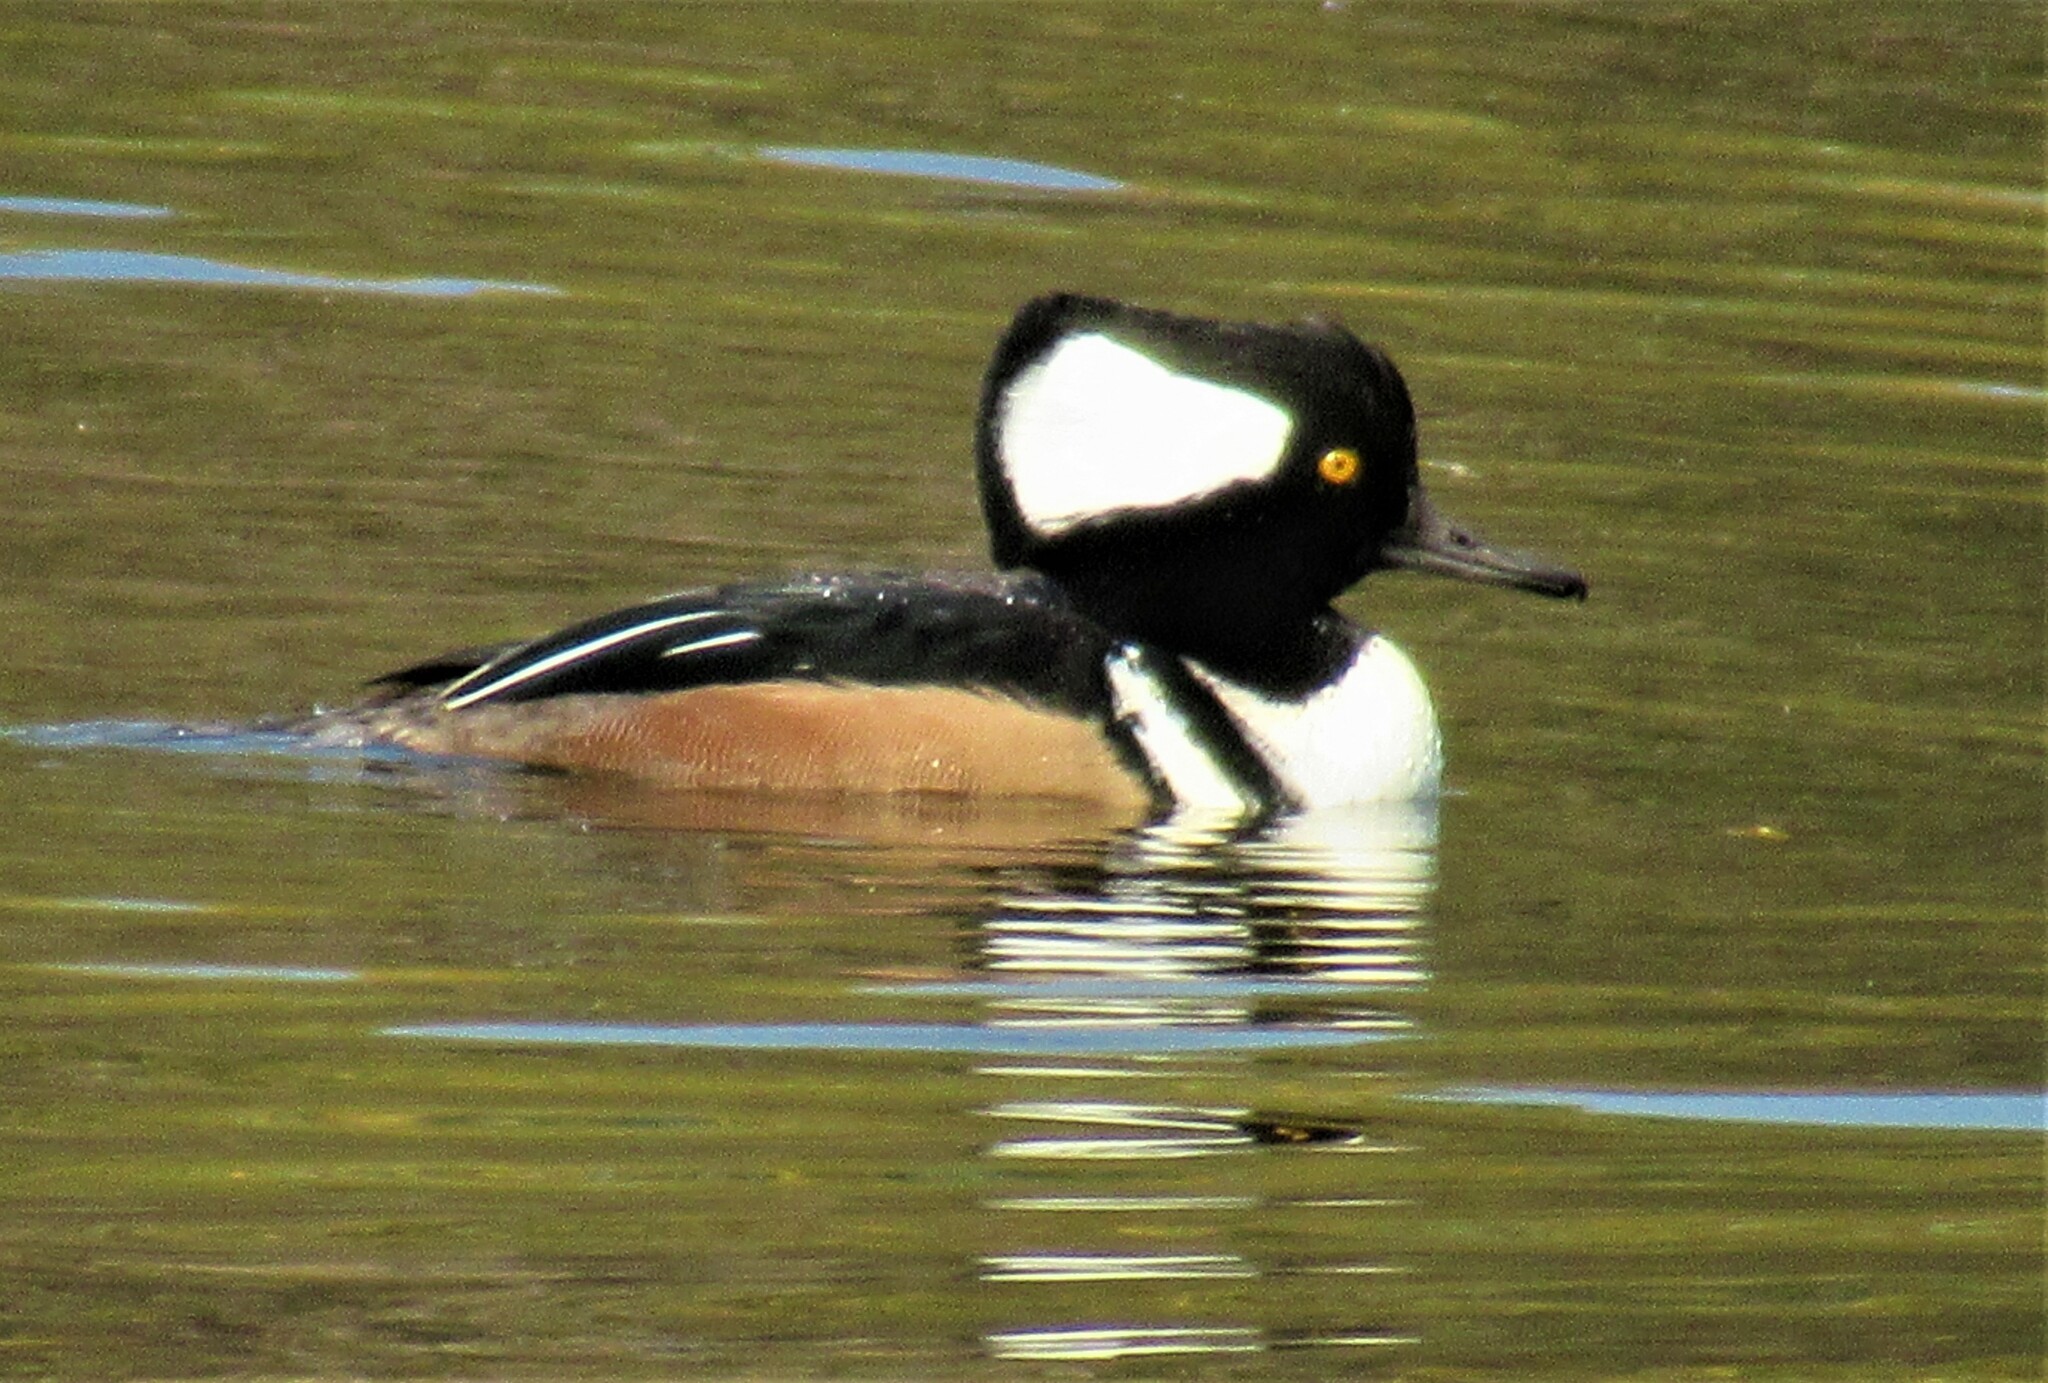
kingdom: Animalia
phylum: Chordata
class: Aves
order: Anseriformes
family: Anatidae
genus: Lophodytes
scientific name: Lophodytes cucullatus
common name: Hooded merganser
